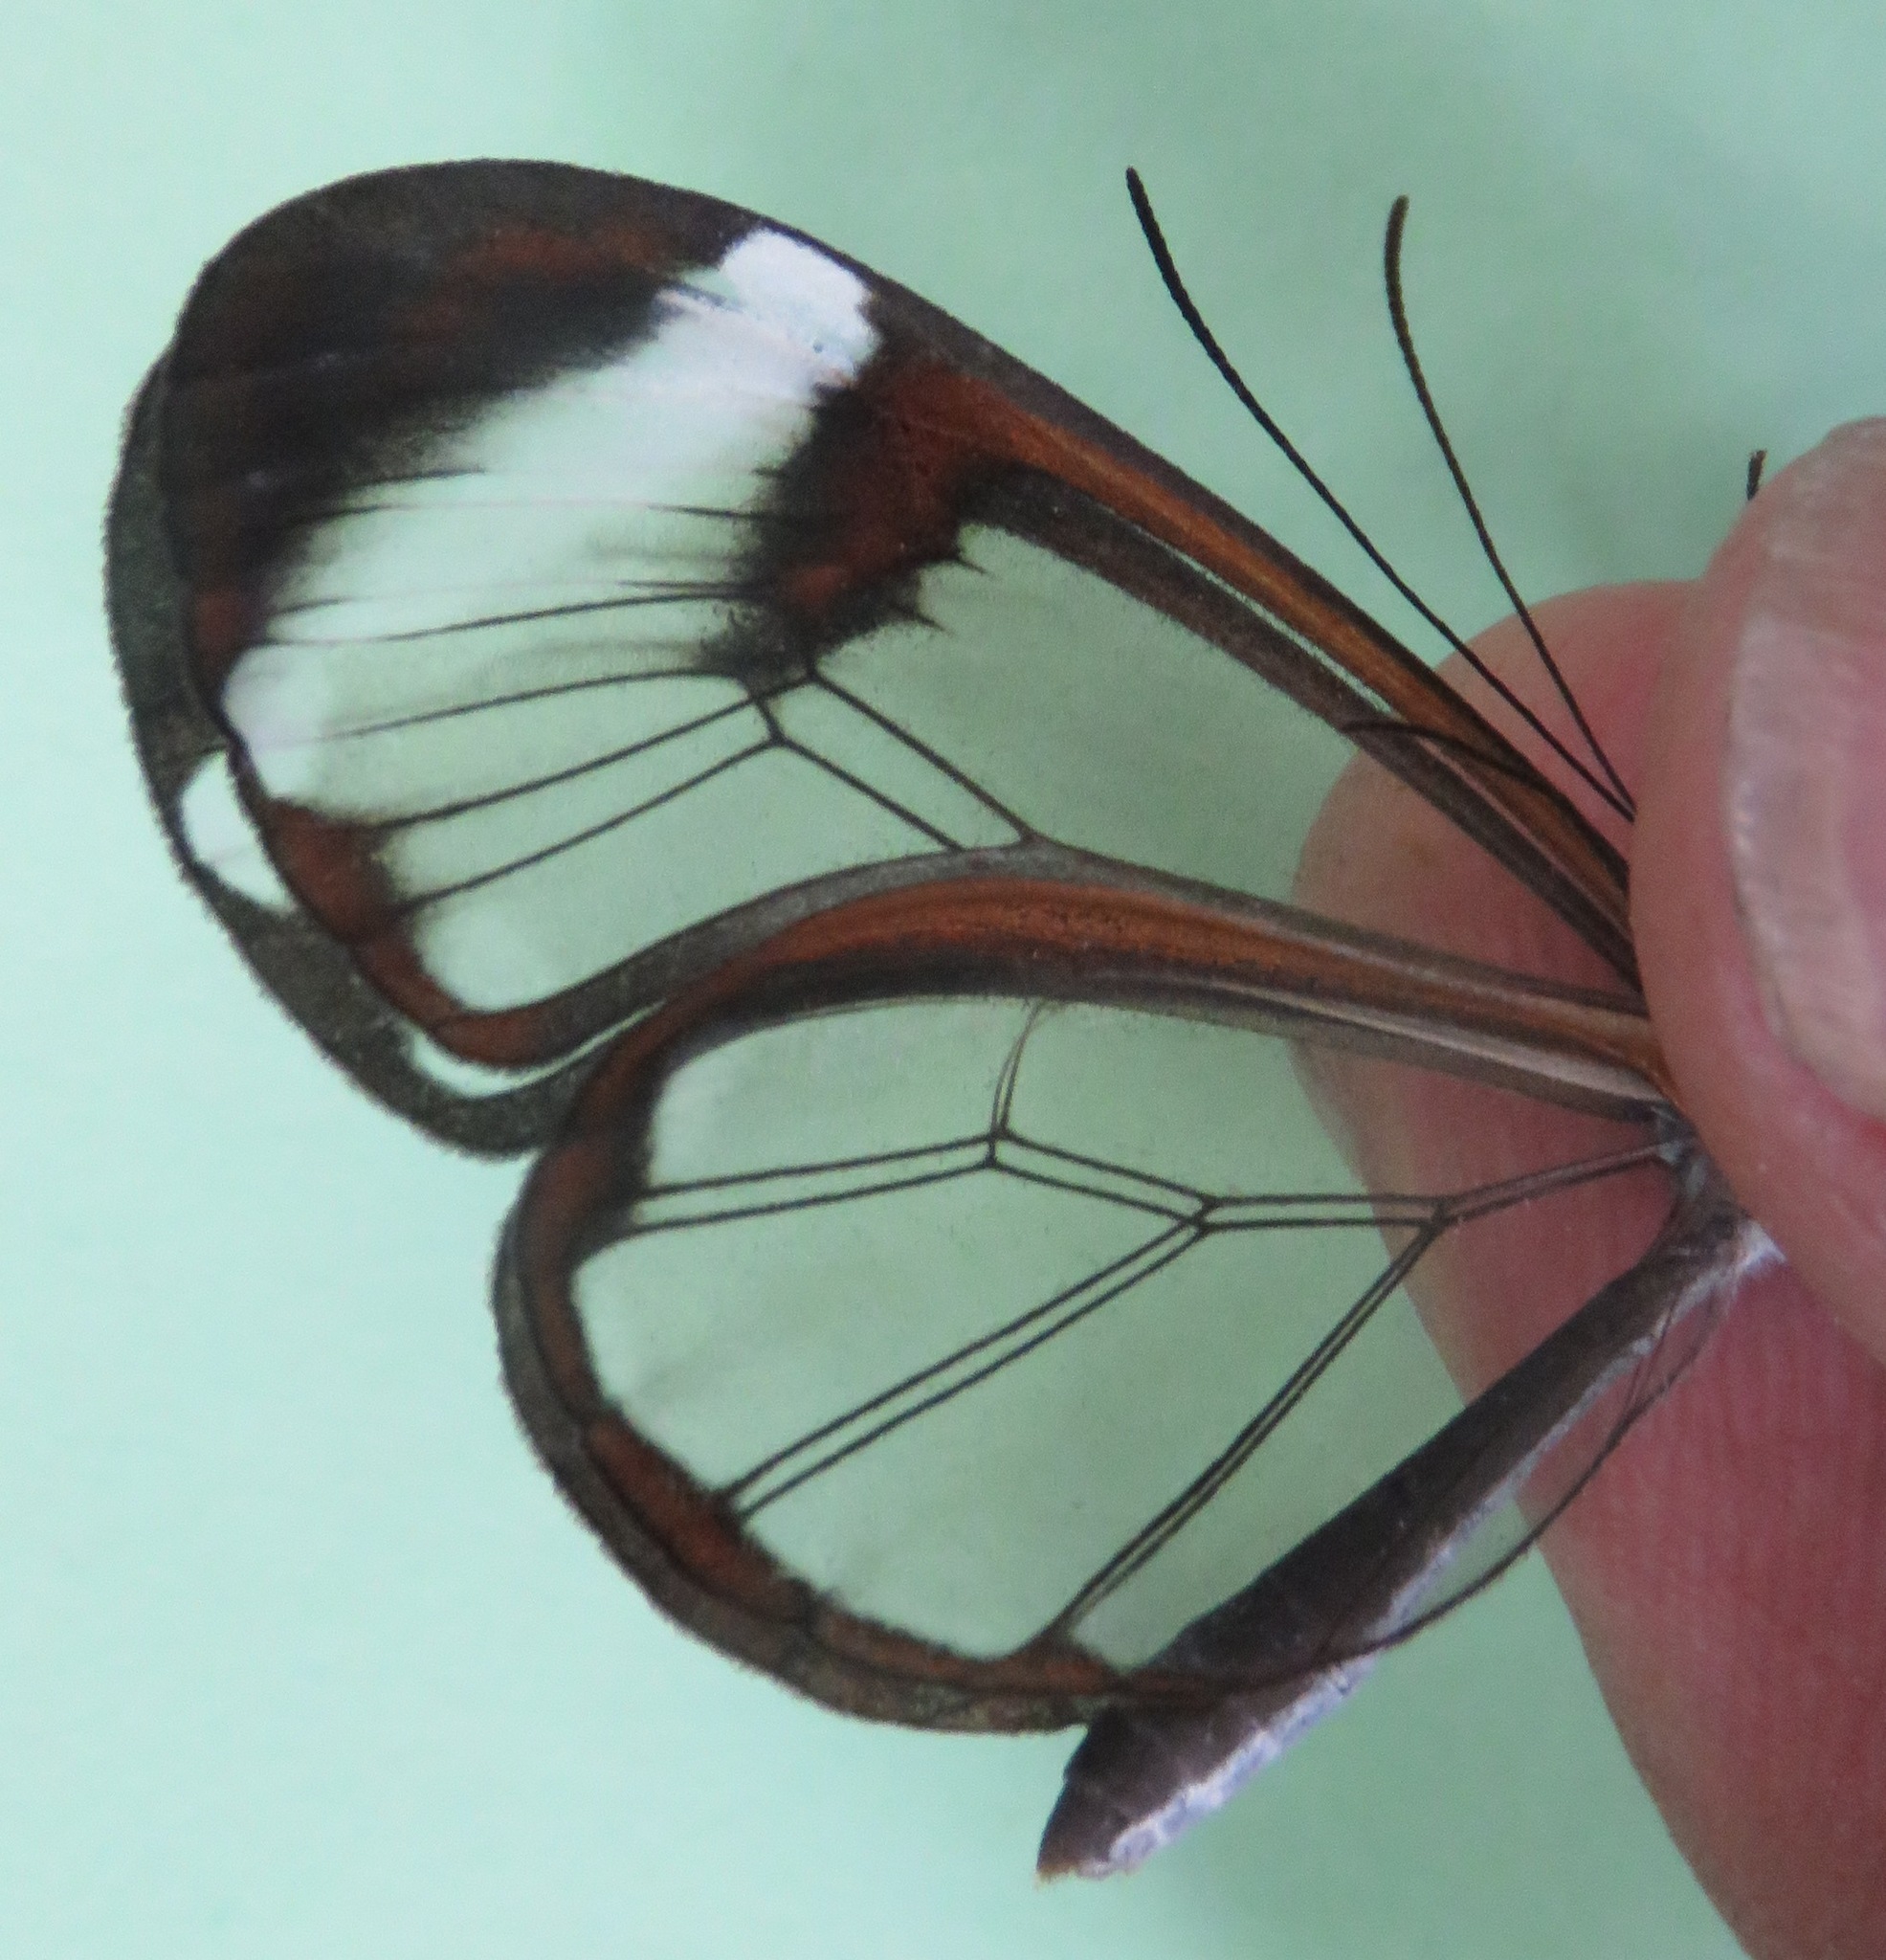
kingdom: Animalia
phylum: Arthropoda
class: Insecta
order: Lepidoptera
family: Nymphalidae
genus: Greta
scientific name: Greta morgane
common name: Thick-tipped greta
